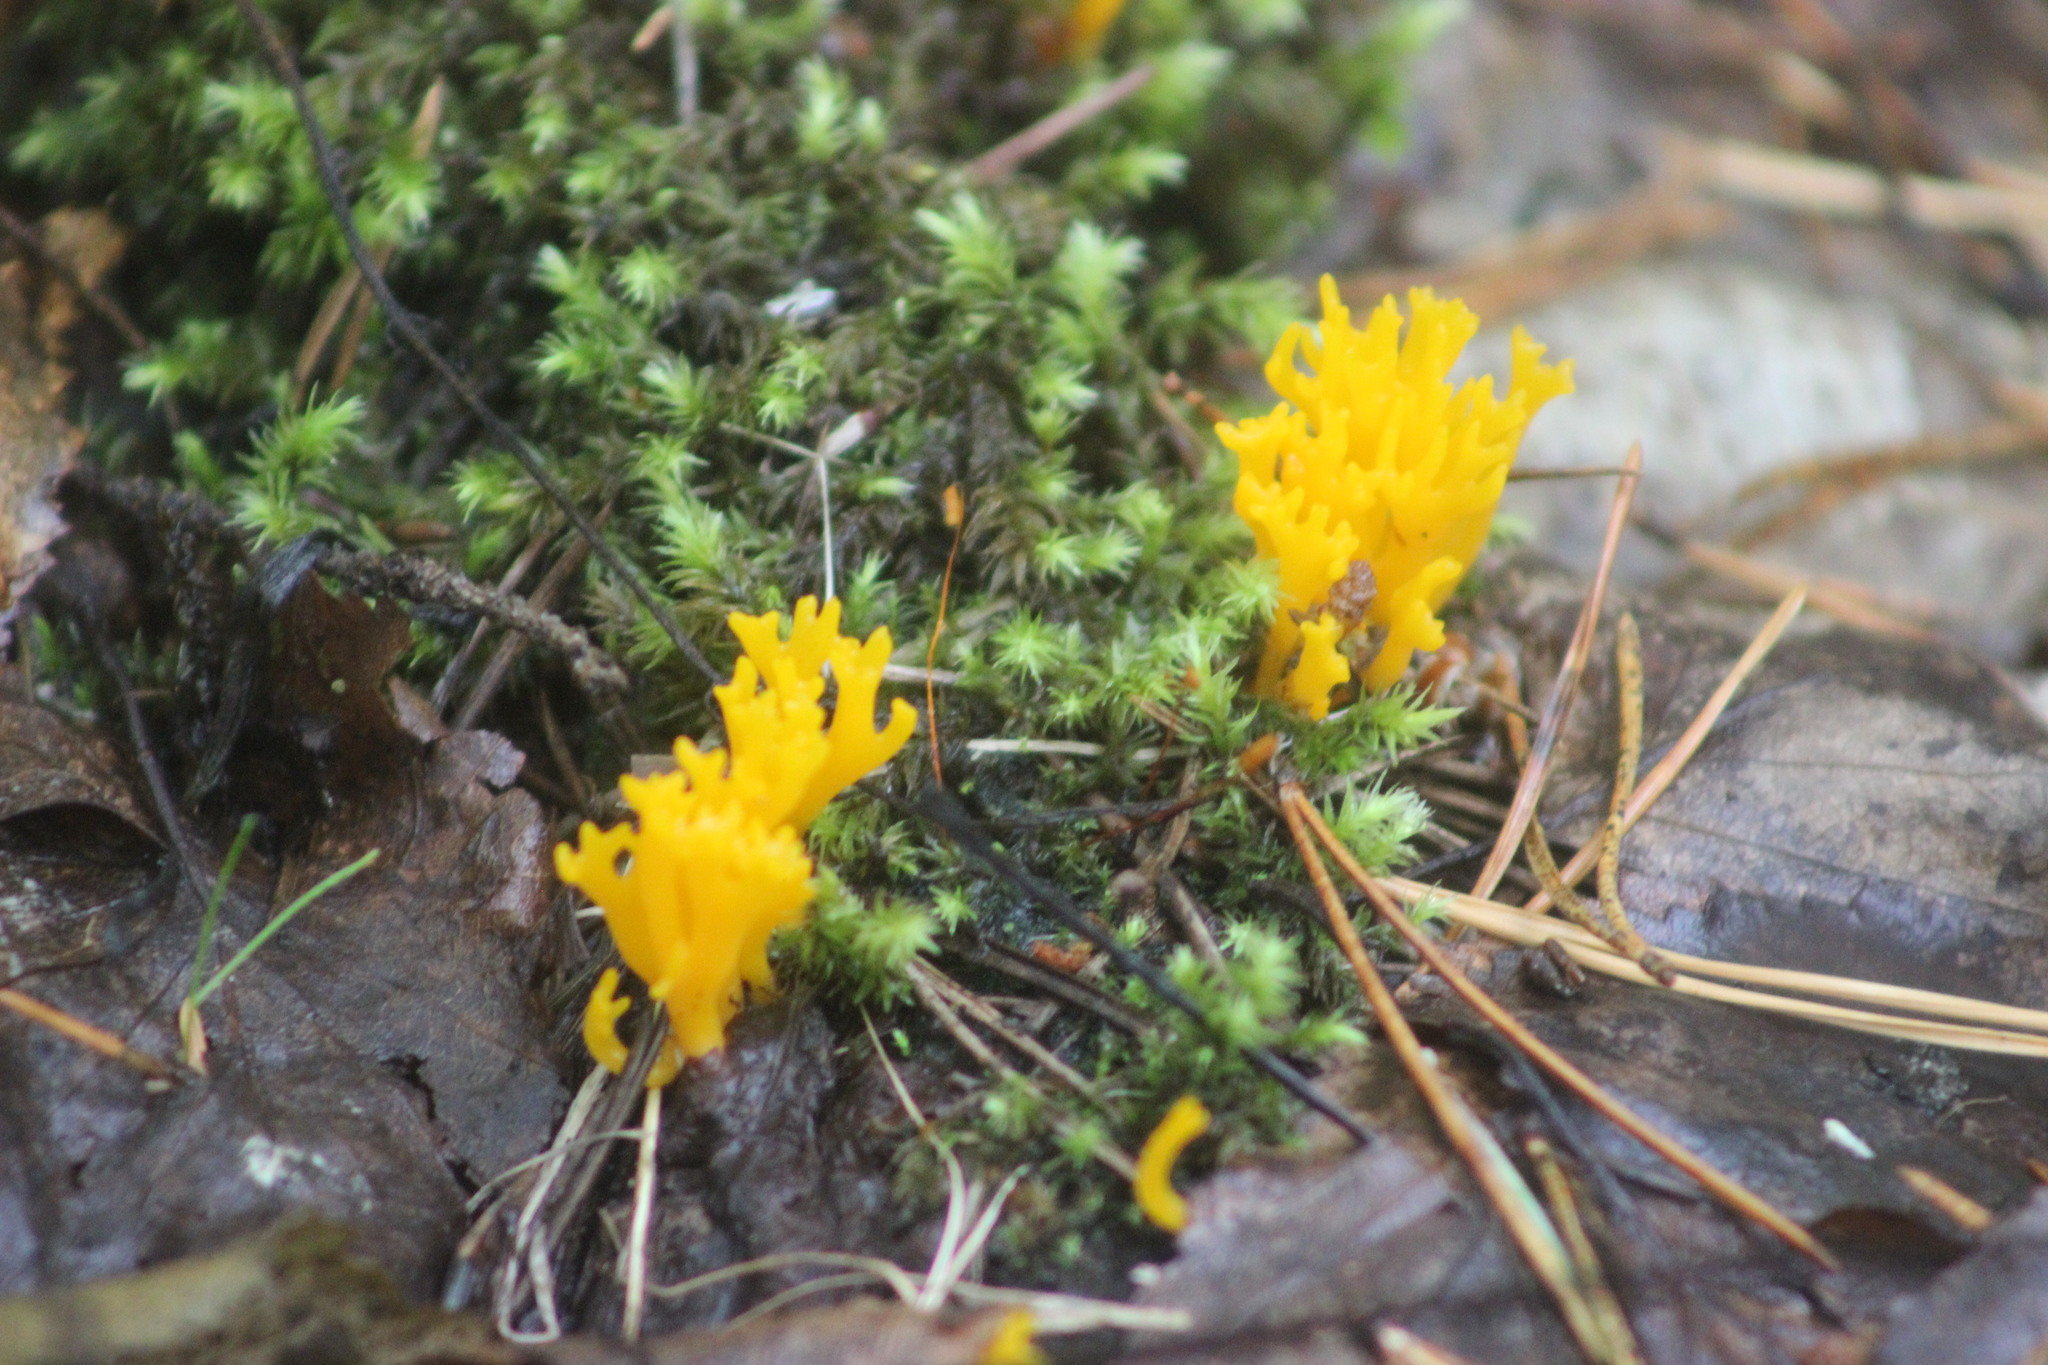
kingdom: Fungi
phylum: Basidiomycota
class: Agaricomycetes
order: Agaricales
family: Clavariaceae
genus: Ramariopsis
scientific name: Ramariopsis crocea
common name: Orange coral
